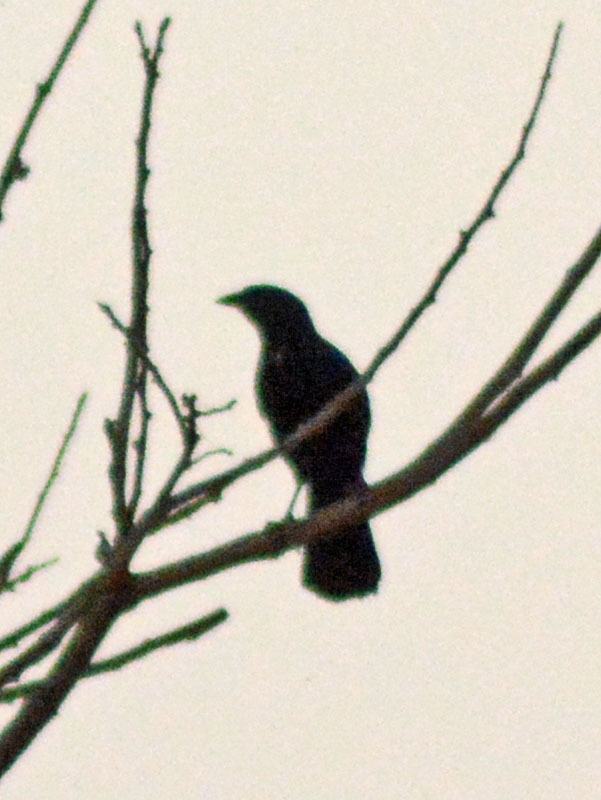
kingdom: Animalia
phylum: Chordata
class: Aves
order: Passeriformes
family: Icteridae
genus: Dives
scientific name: Dives dives
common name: Melodious blackbird
